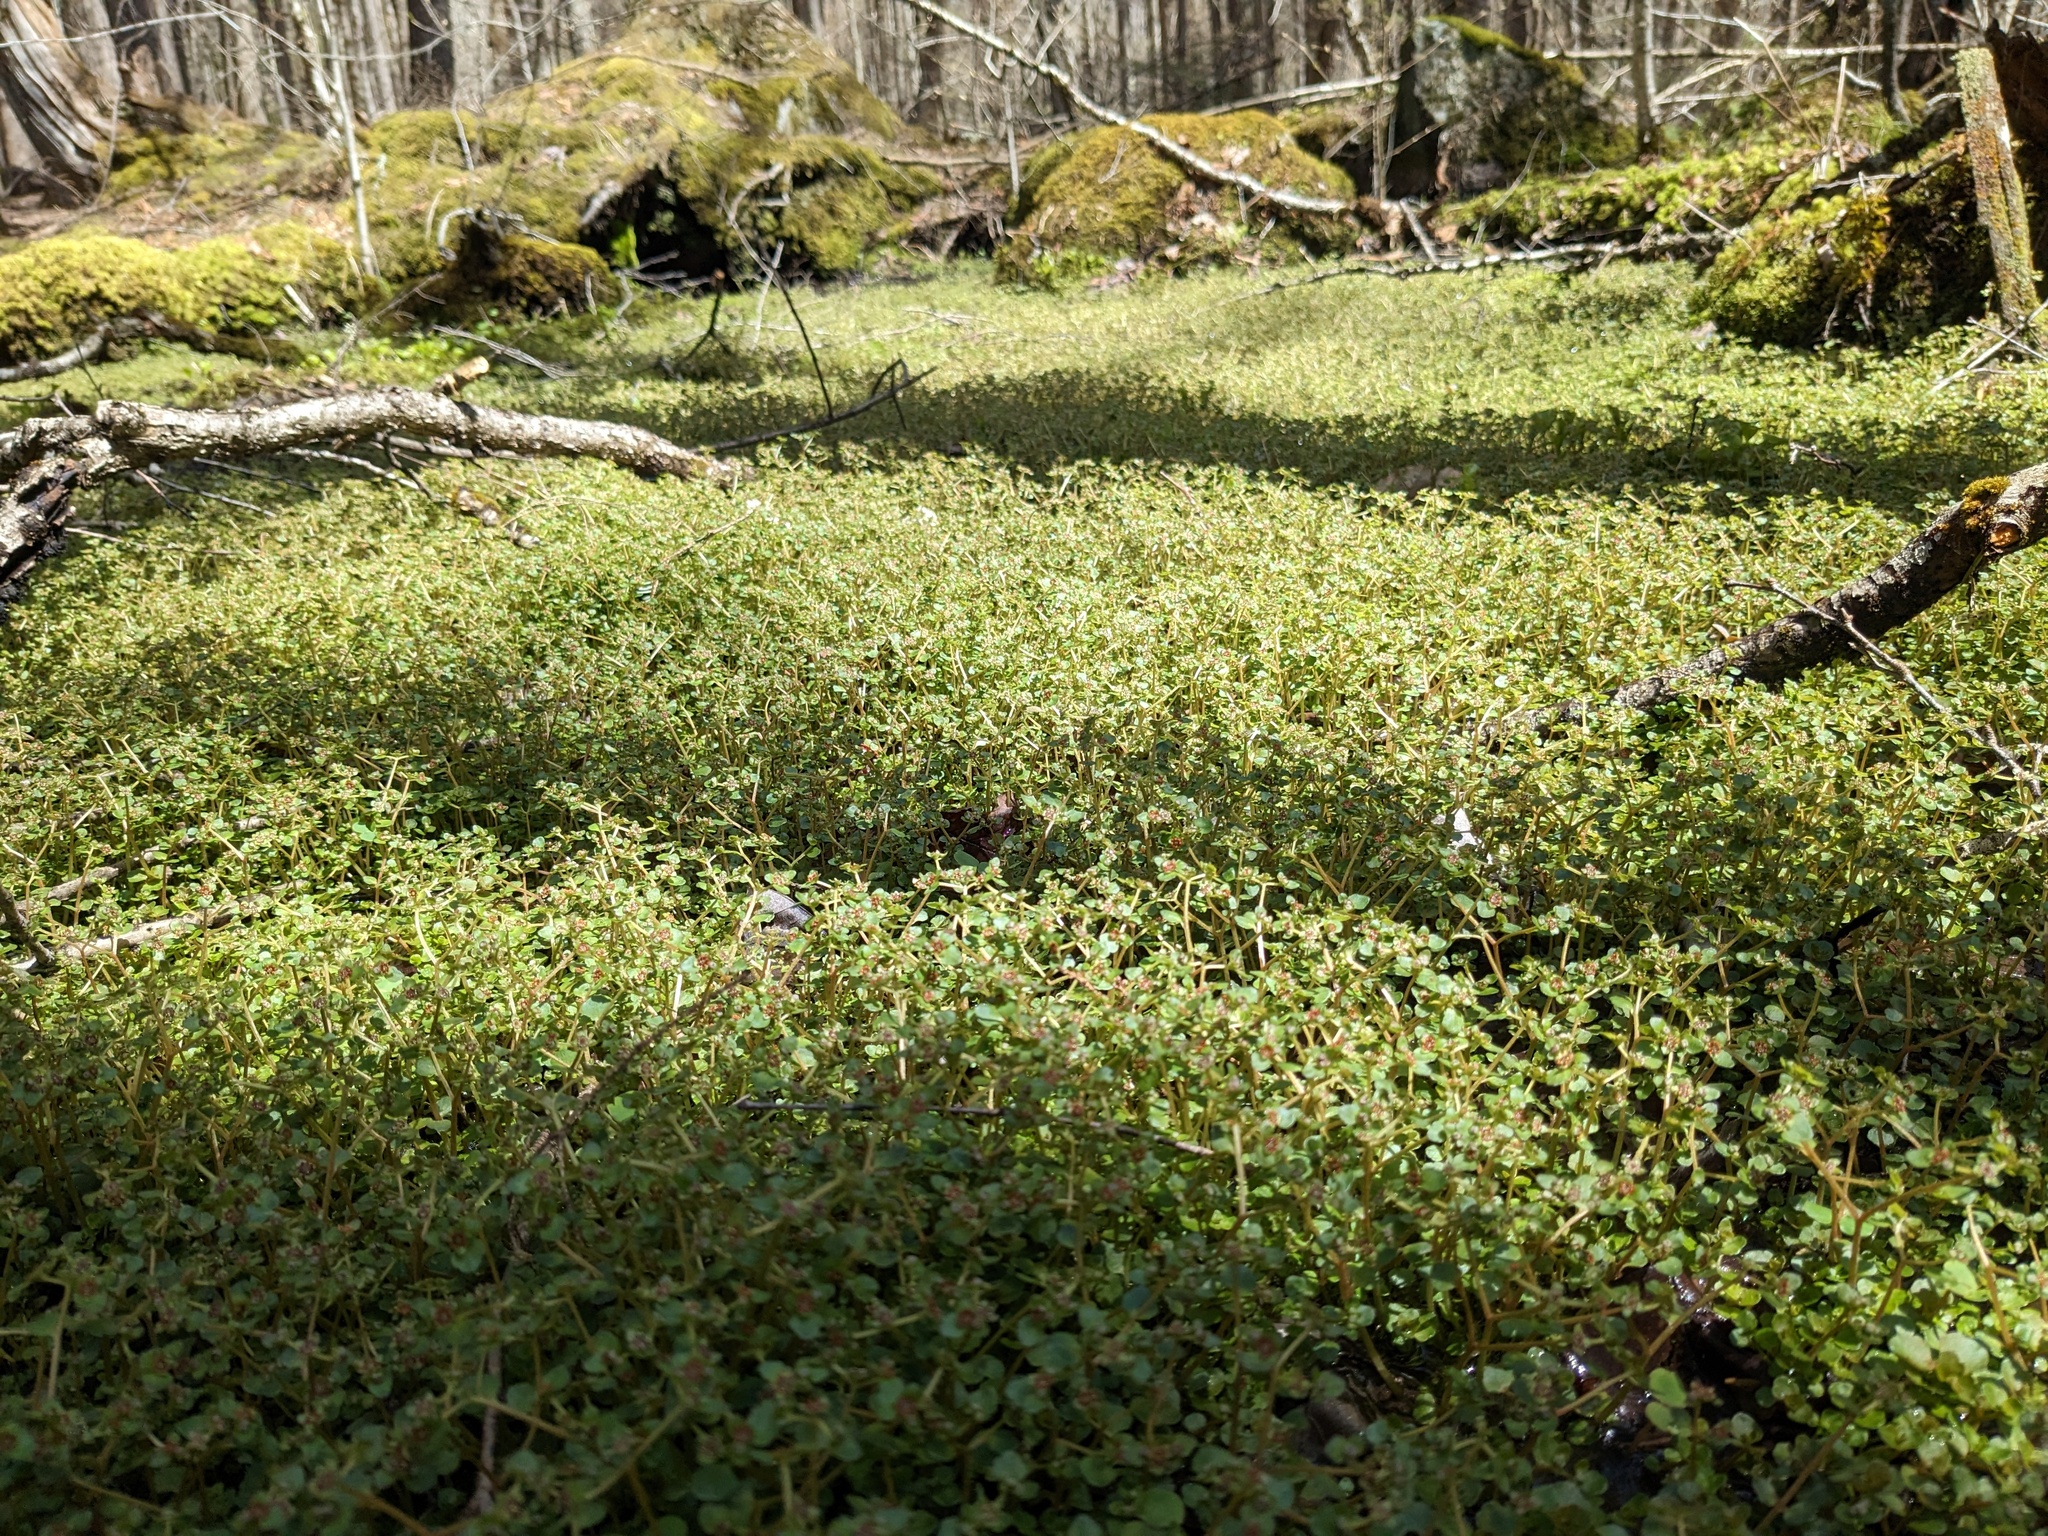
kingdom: Plantae
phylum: Tracheophyta
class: Magnoliopsida
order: Saxifragales
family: Saxifragaceae
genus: Chrysosplenium
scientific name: Chrysosplenium americanum
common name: American golden-saxifrage
